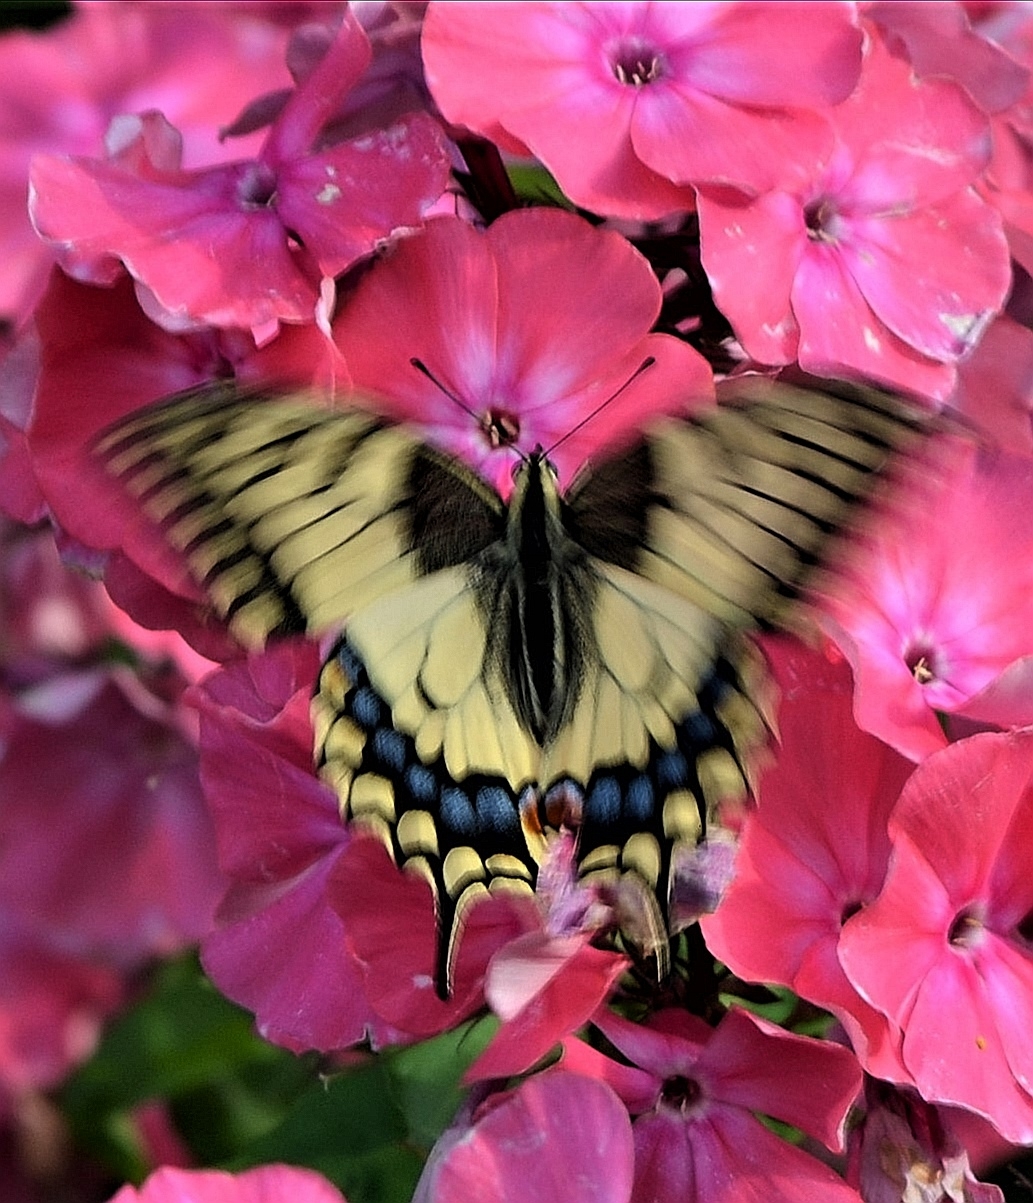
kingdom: Animalia
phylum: Arthropoda
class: Insecta
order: Lepidoptera
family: Papilionidae
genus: Papilio
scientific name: Papilio machaon
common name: Swallowtail
